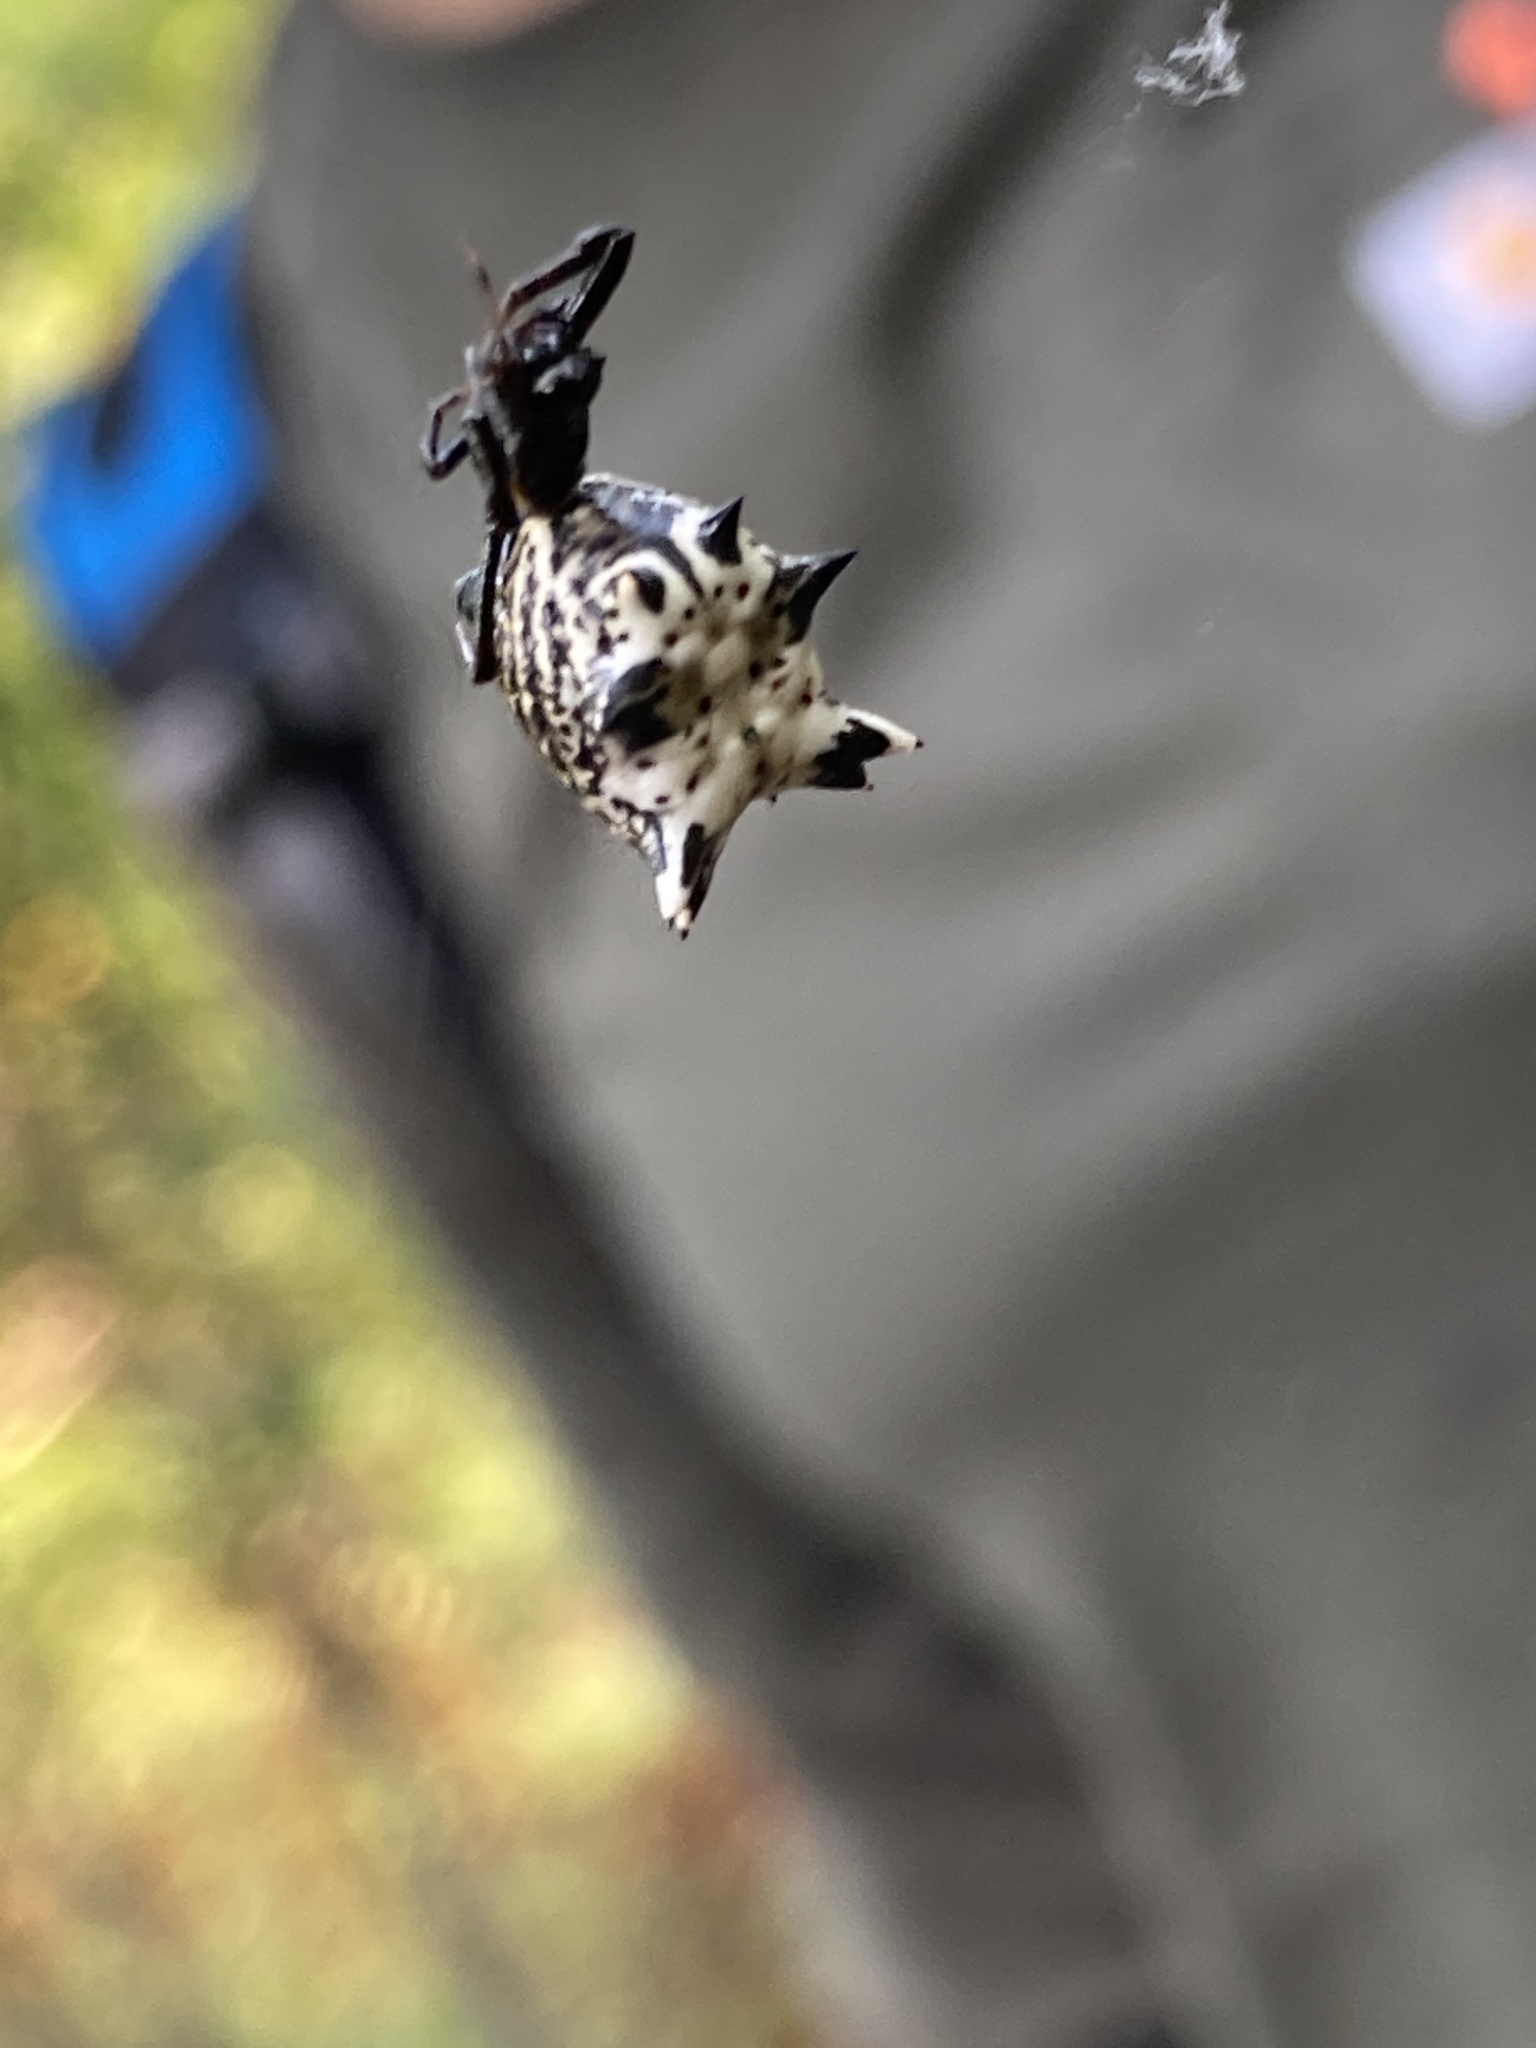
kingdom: Animalia
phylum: Arthropoda
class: Arachnida
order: Araneae
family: Araneidae
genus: Micrathena
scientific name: Micrathena gracilis
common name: Orb weavers
